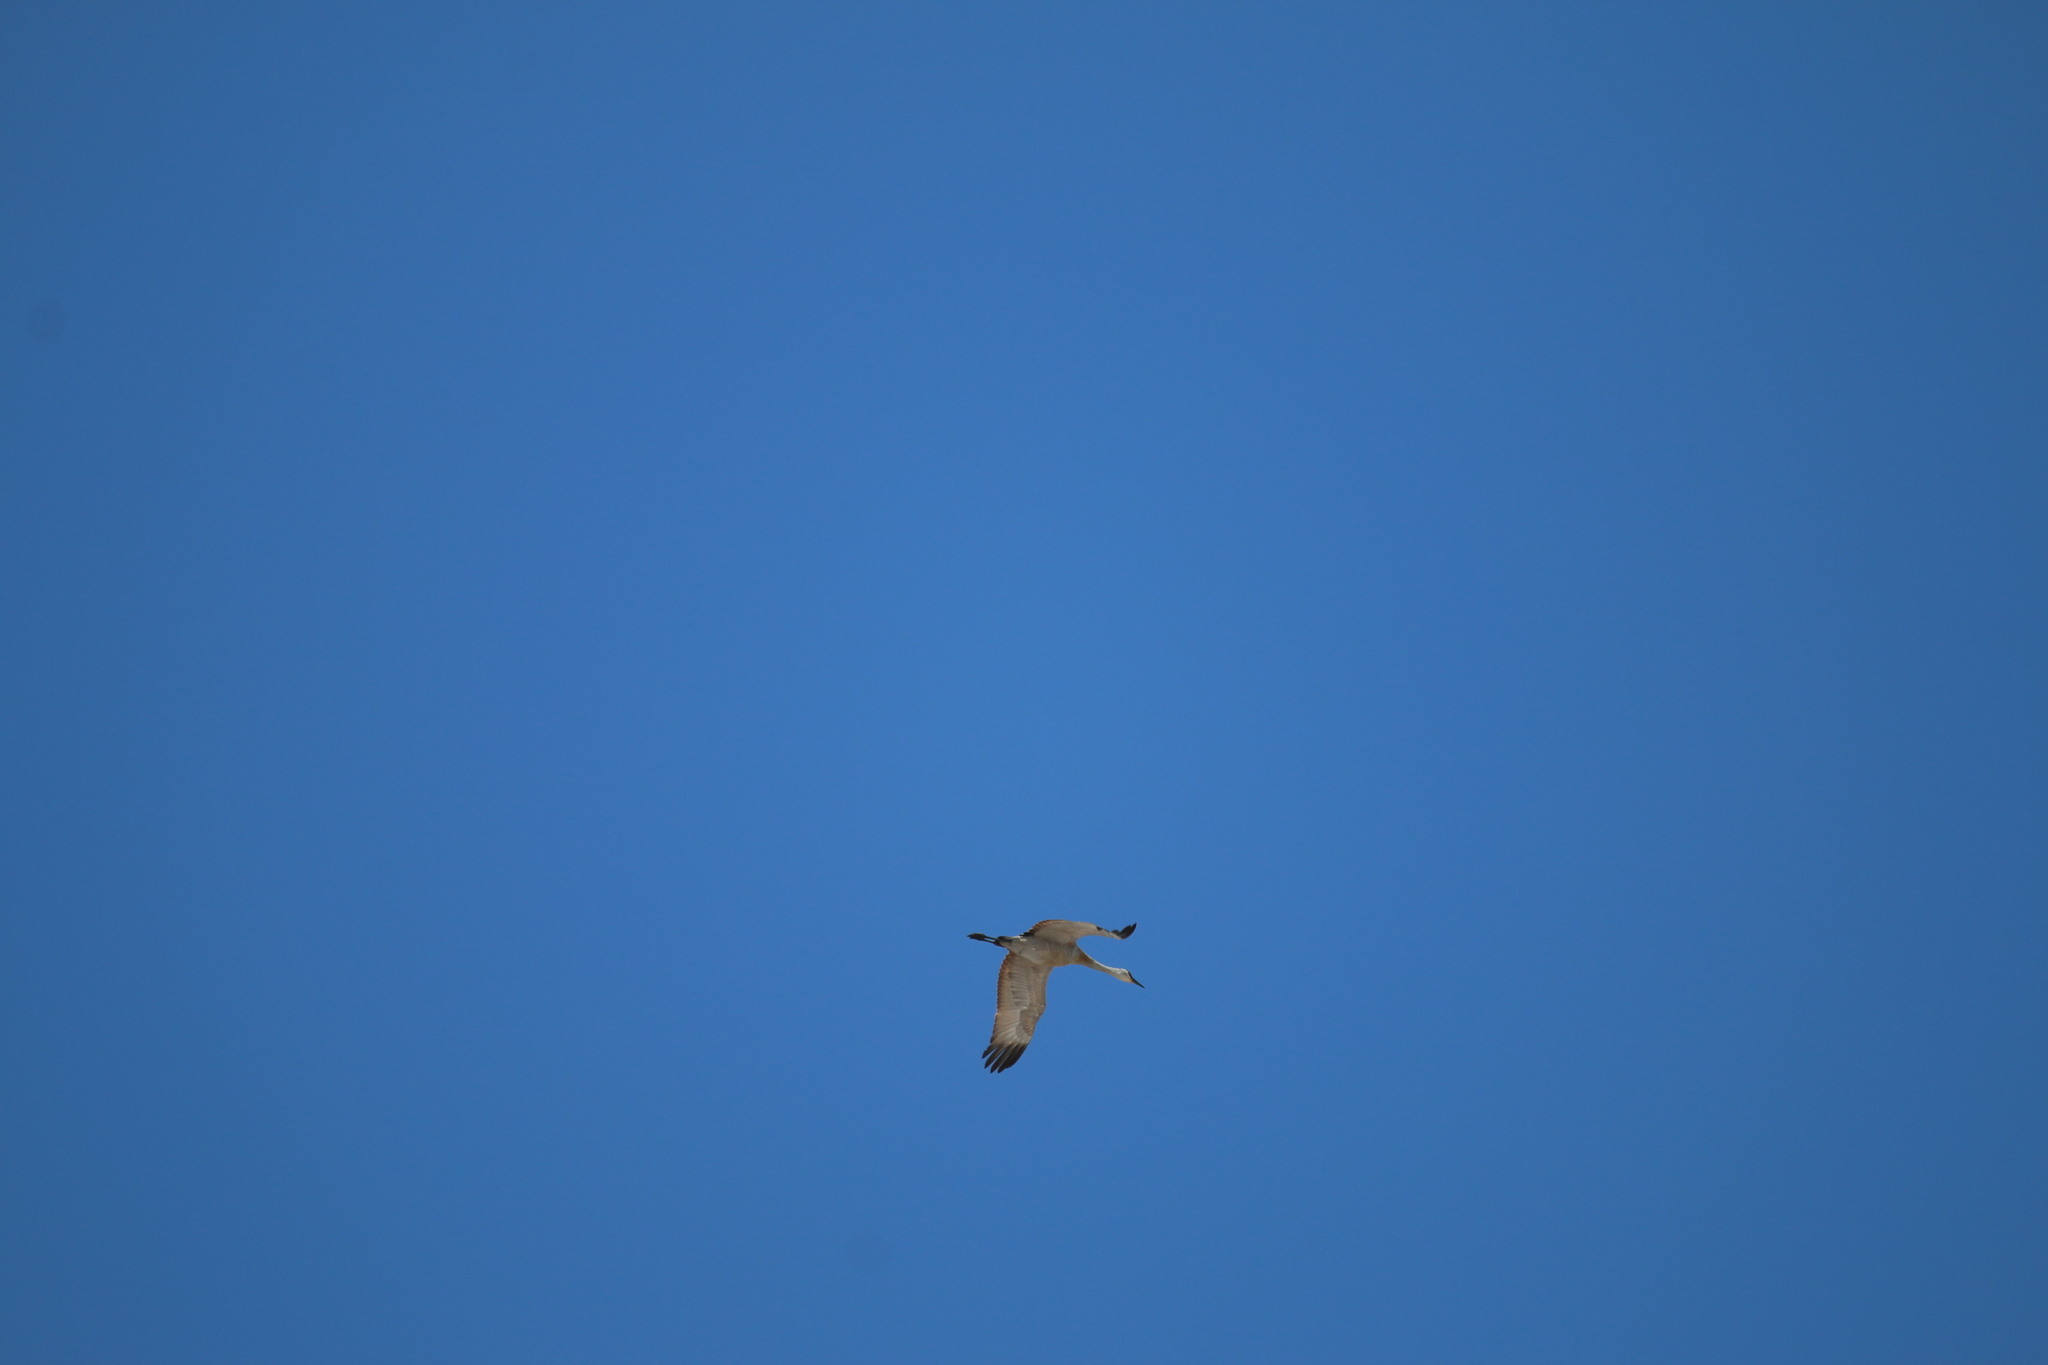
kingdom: Animalia
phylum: Chordata
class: Aves
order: Gruiformes
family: Gruidae
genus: Grus
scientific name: Grus canadensis
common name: Sandhill crane
